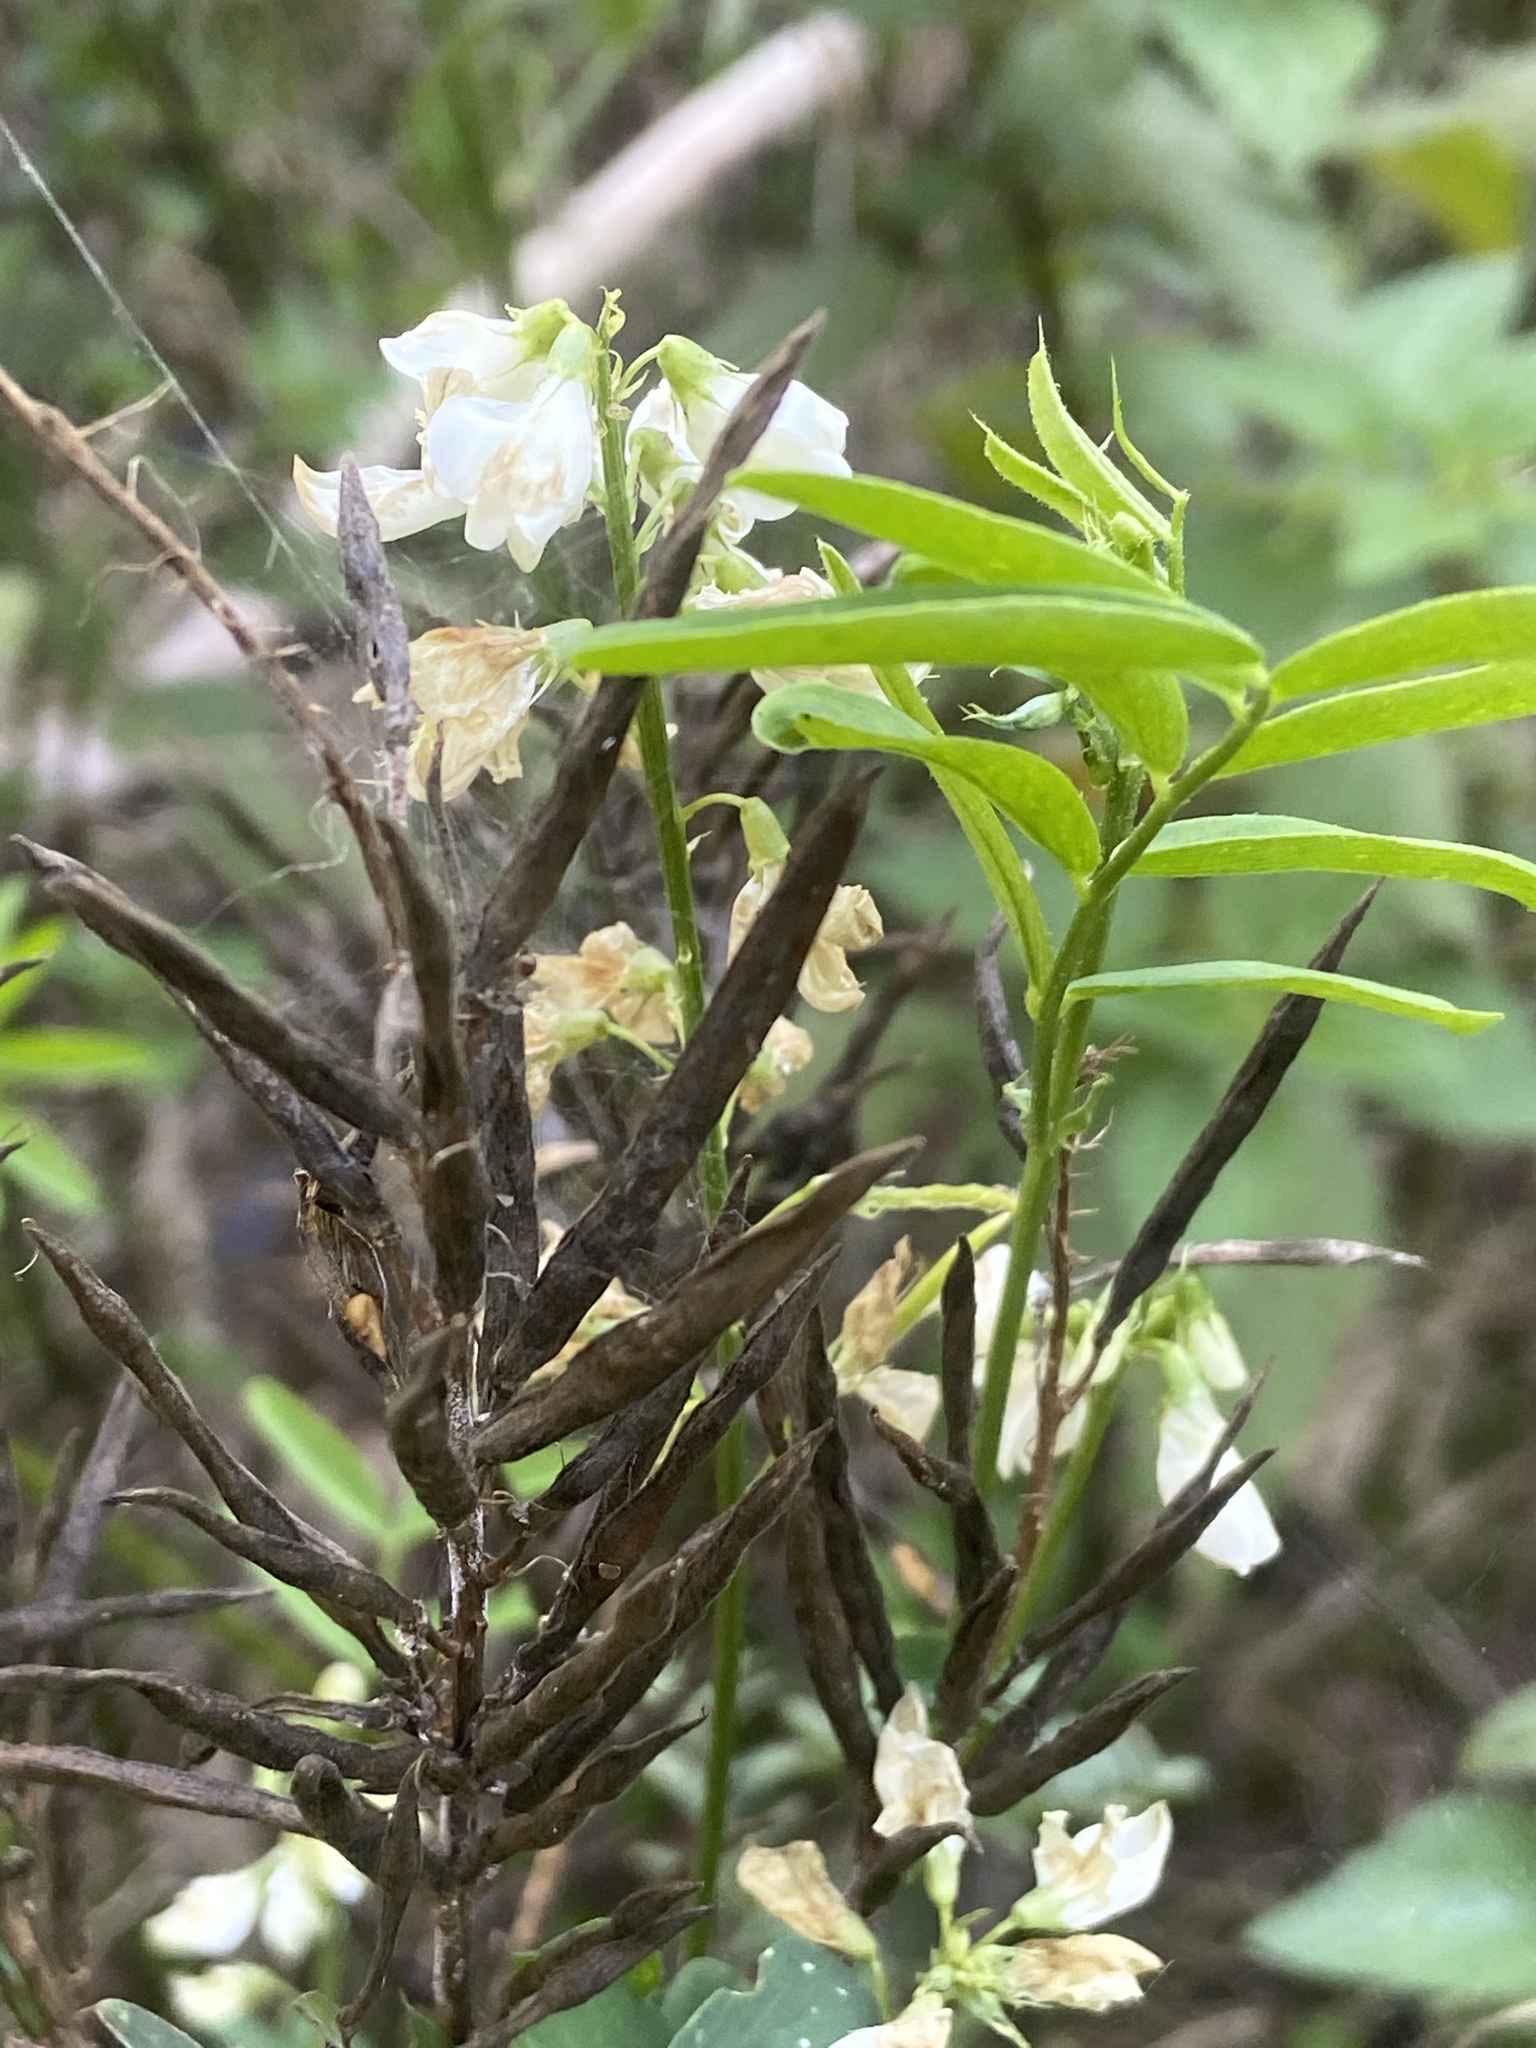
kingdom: Plantae
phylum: Tracheophyta
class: Magnoliopsida
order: Fabales
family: Fabaceae
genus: Galega
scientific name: Galega officinalis
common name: Goat's-rue
